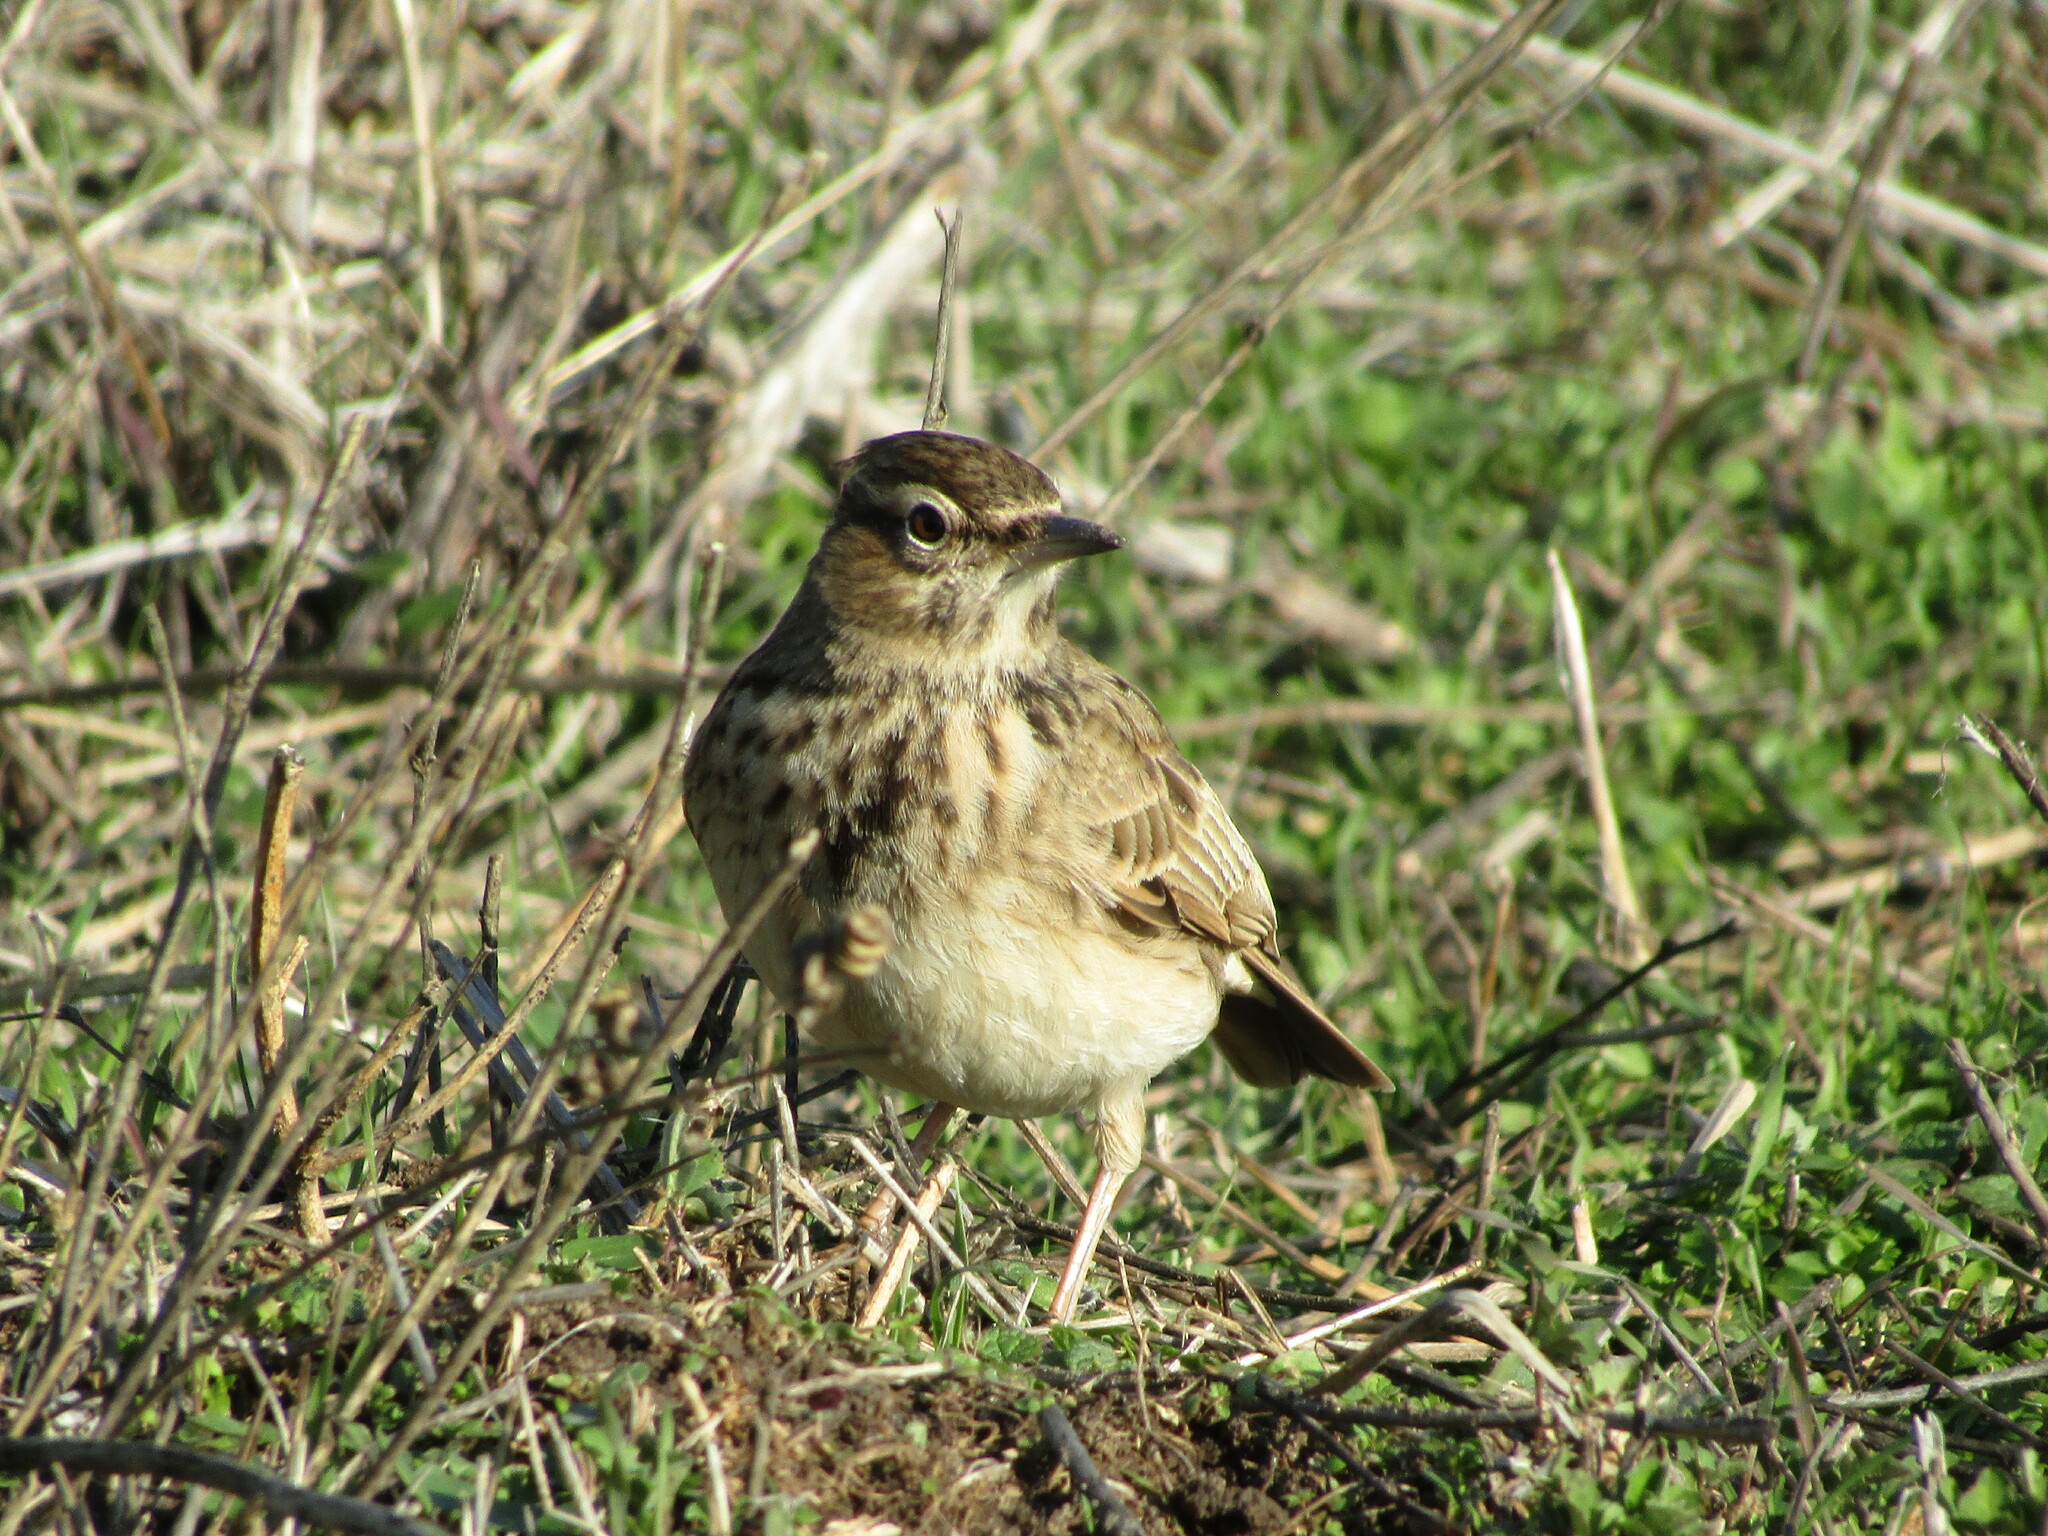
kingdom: Animalia
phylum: Chordata
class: Aves
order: Passeriformes
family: Alaudidae
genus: Galerida
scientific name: Galerida cristata
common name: Crested lark
